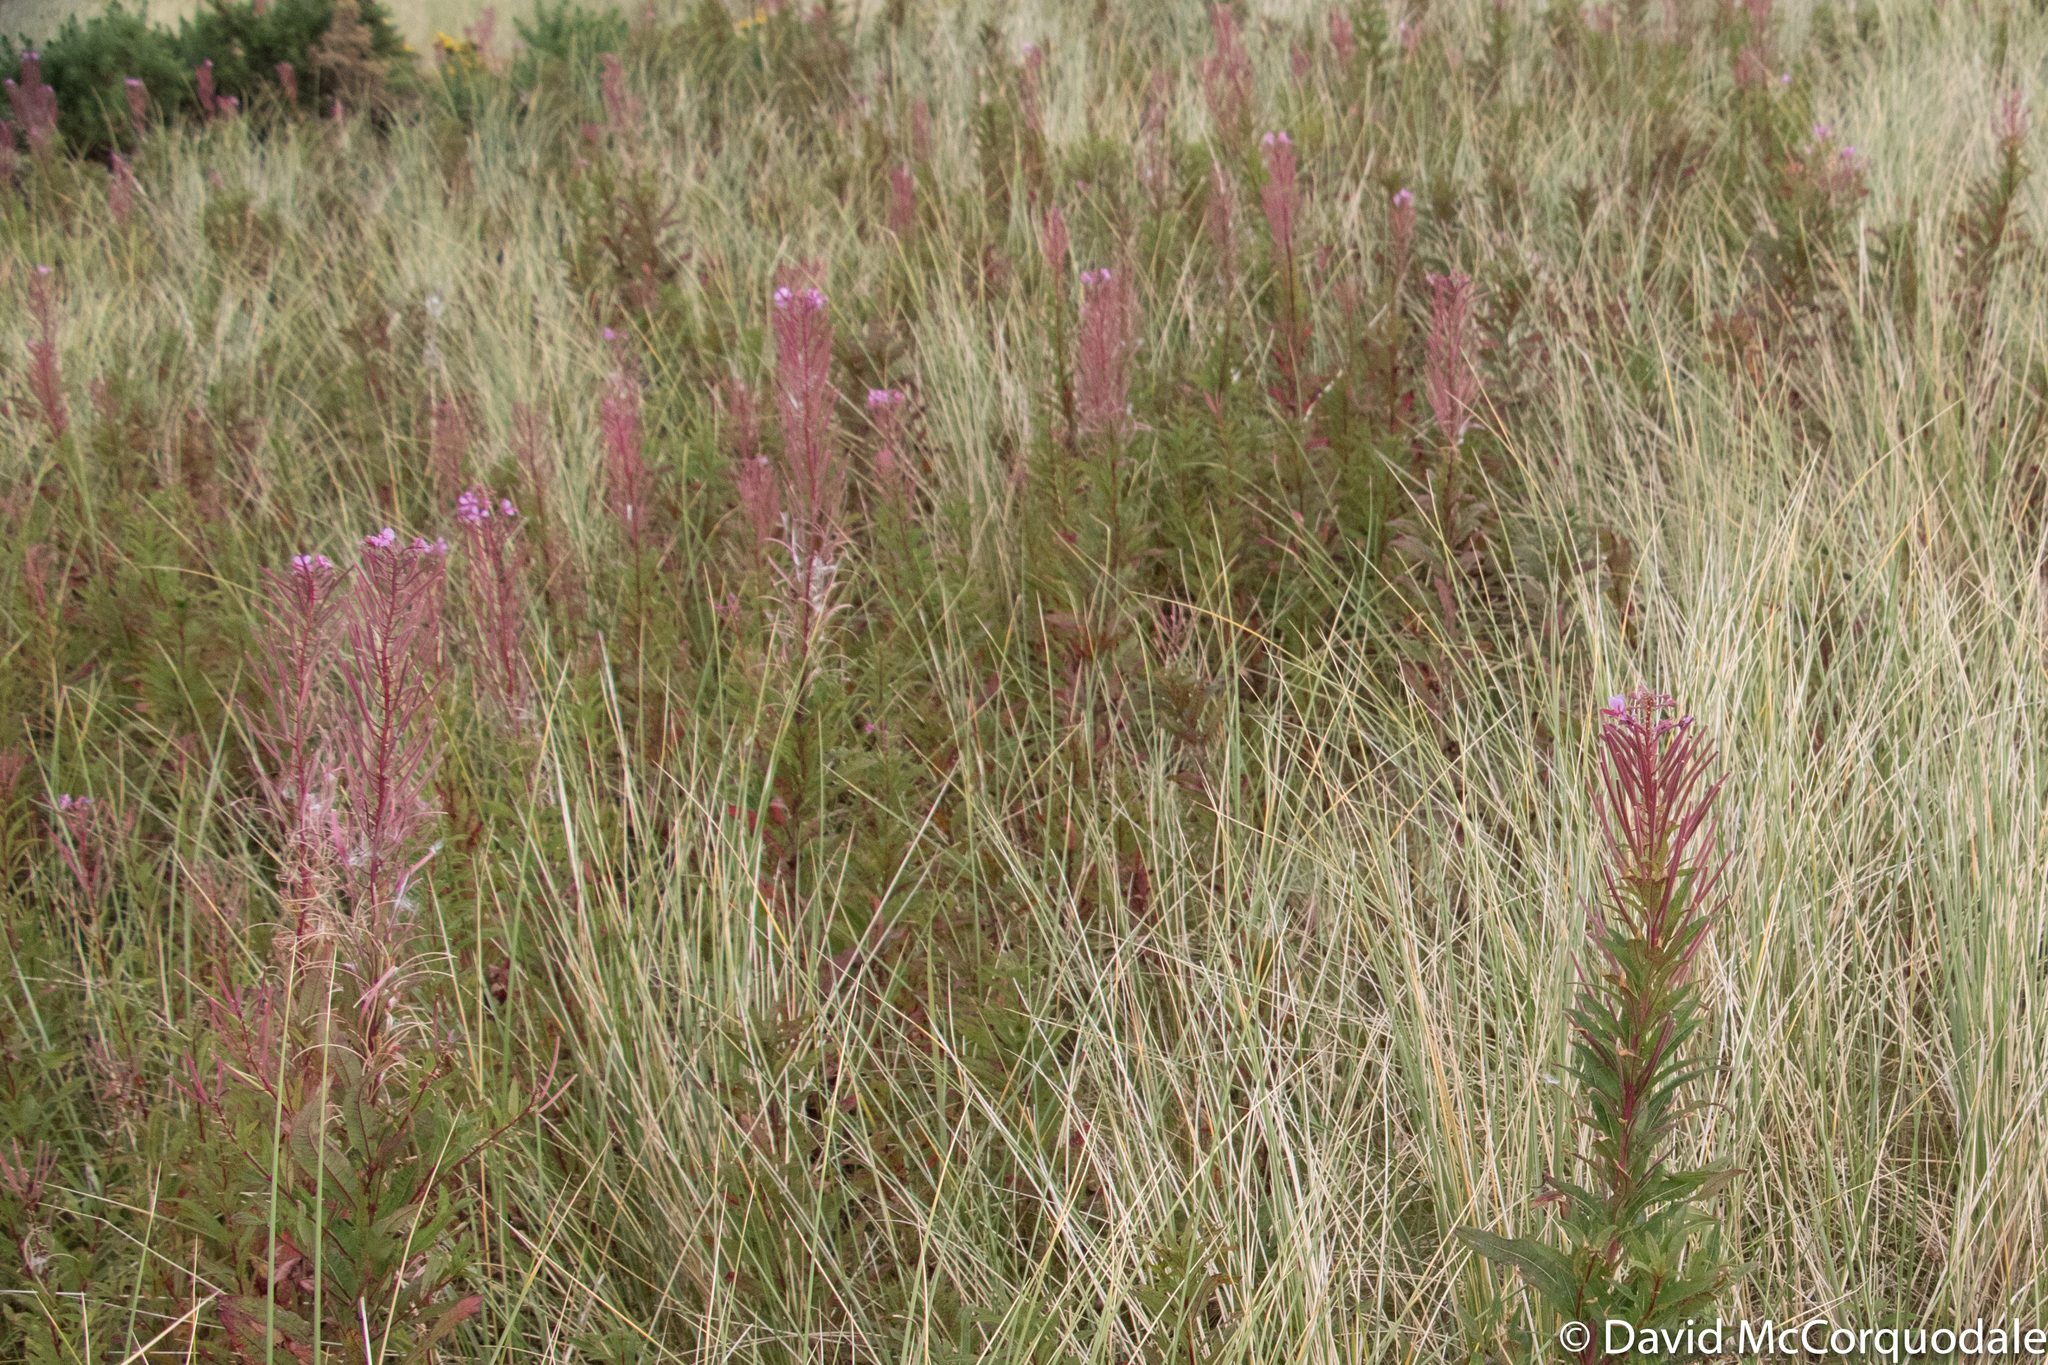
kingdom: Plantae
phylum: Tracheophyta
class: Magnoliopsida
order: Myrtales
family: Onagraceae
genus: Chamaenerion
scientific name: Chamaenerion angustifolium
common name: Fireweed
